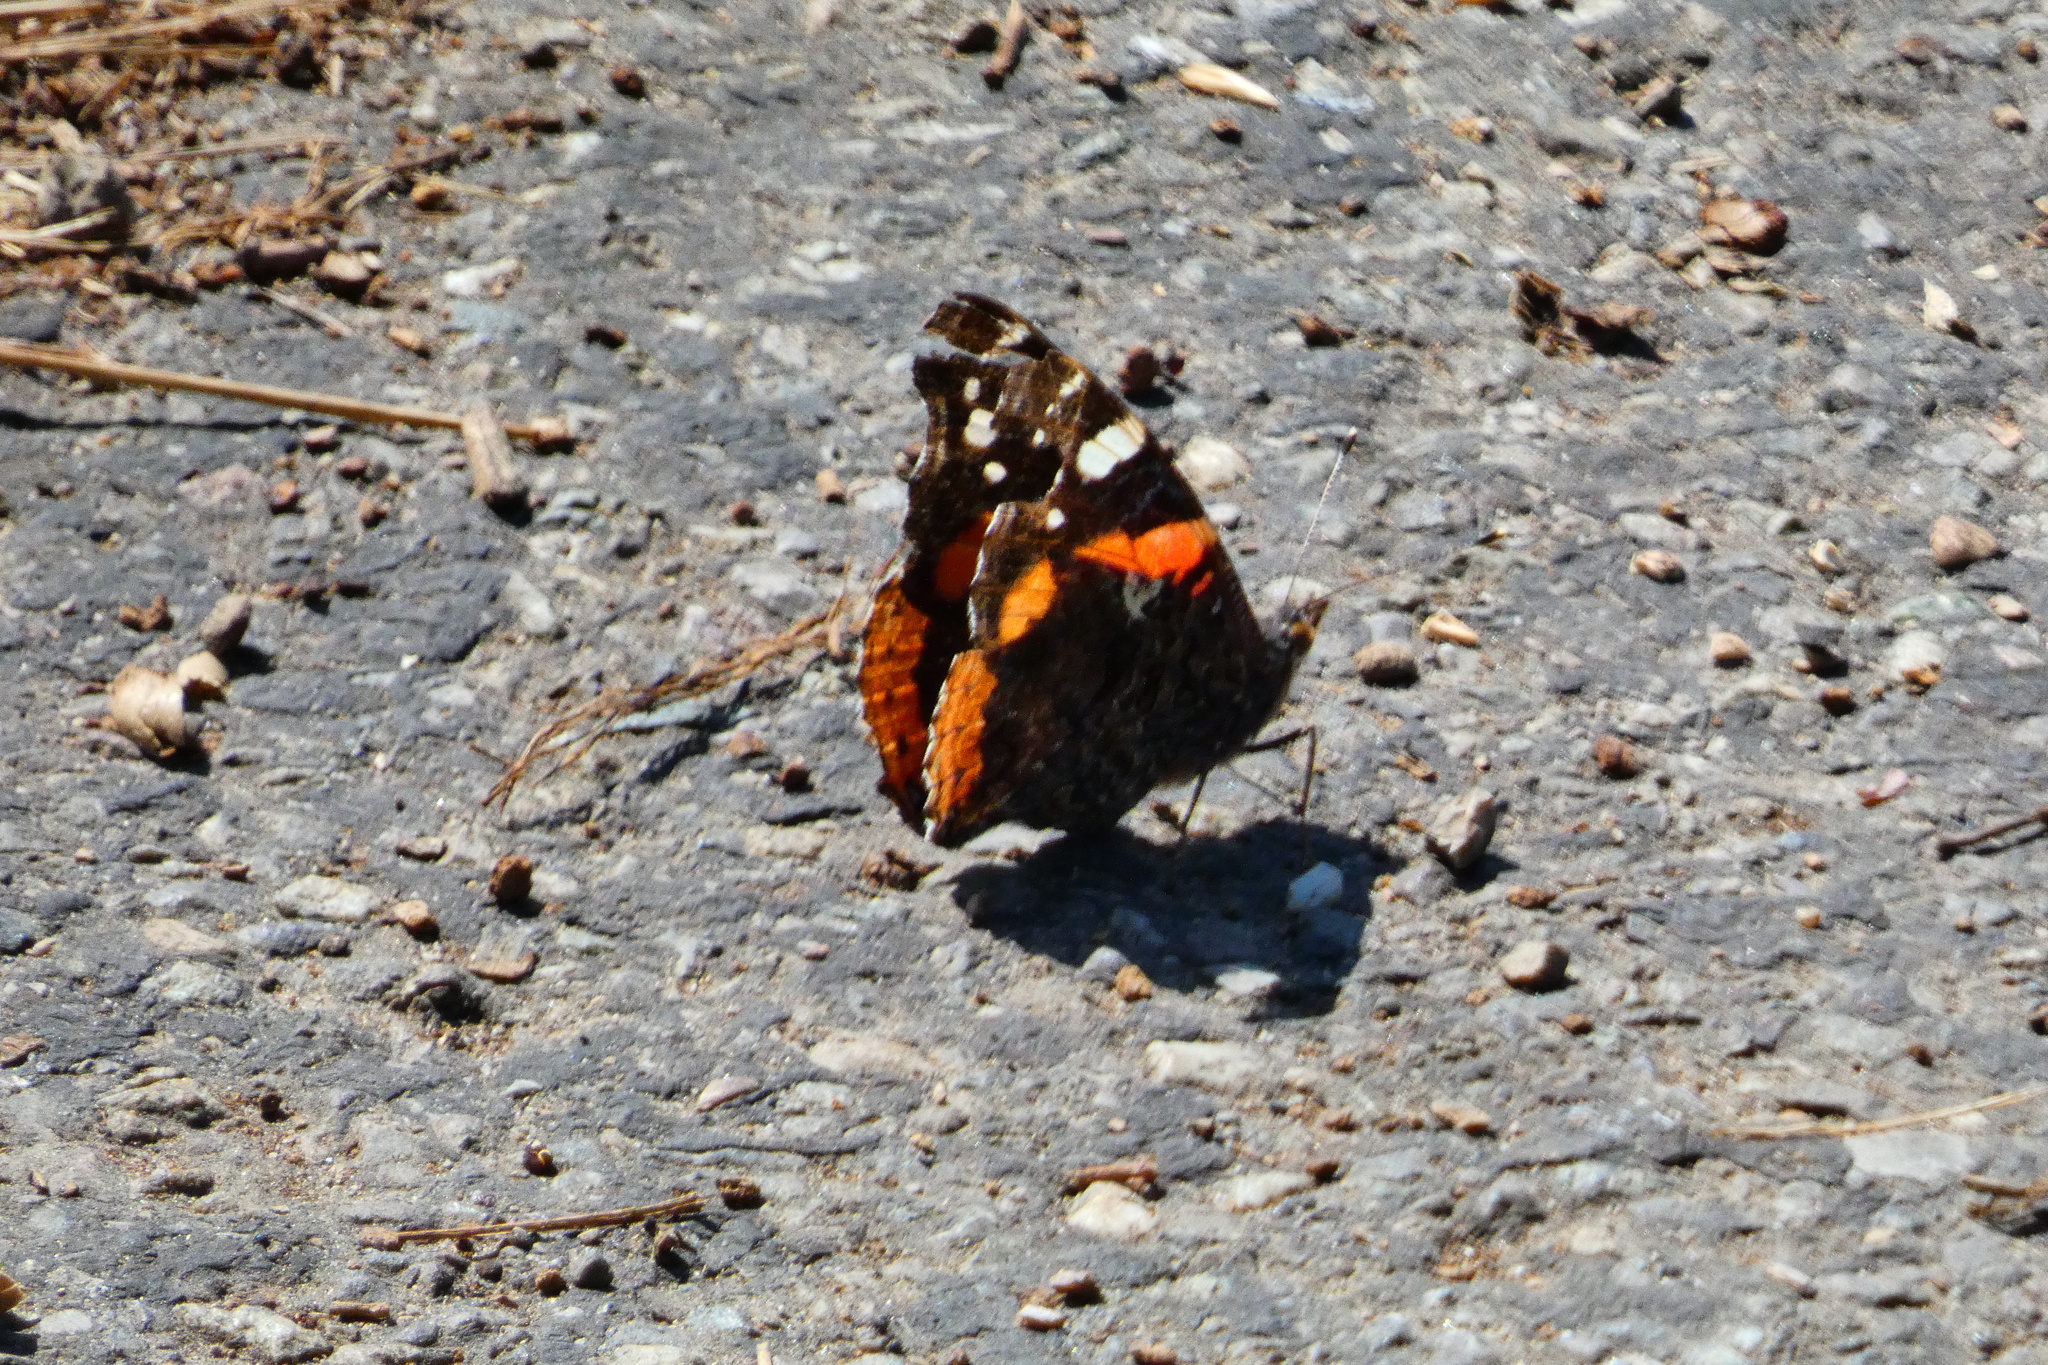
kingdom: Animalia
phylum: Arthropoda
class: Insecta
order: Lepidoptera
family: Nymphalidae
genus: Vanessa
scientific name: Vanessa atalanta
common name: Red admiral
